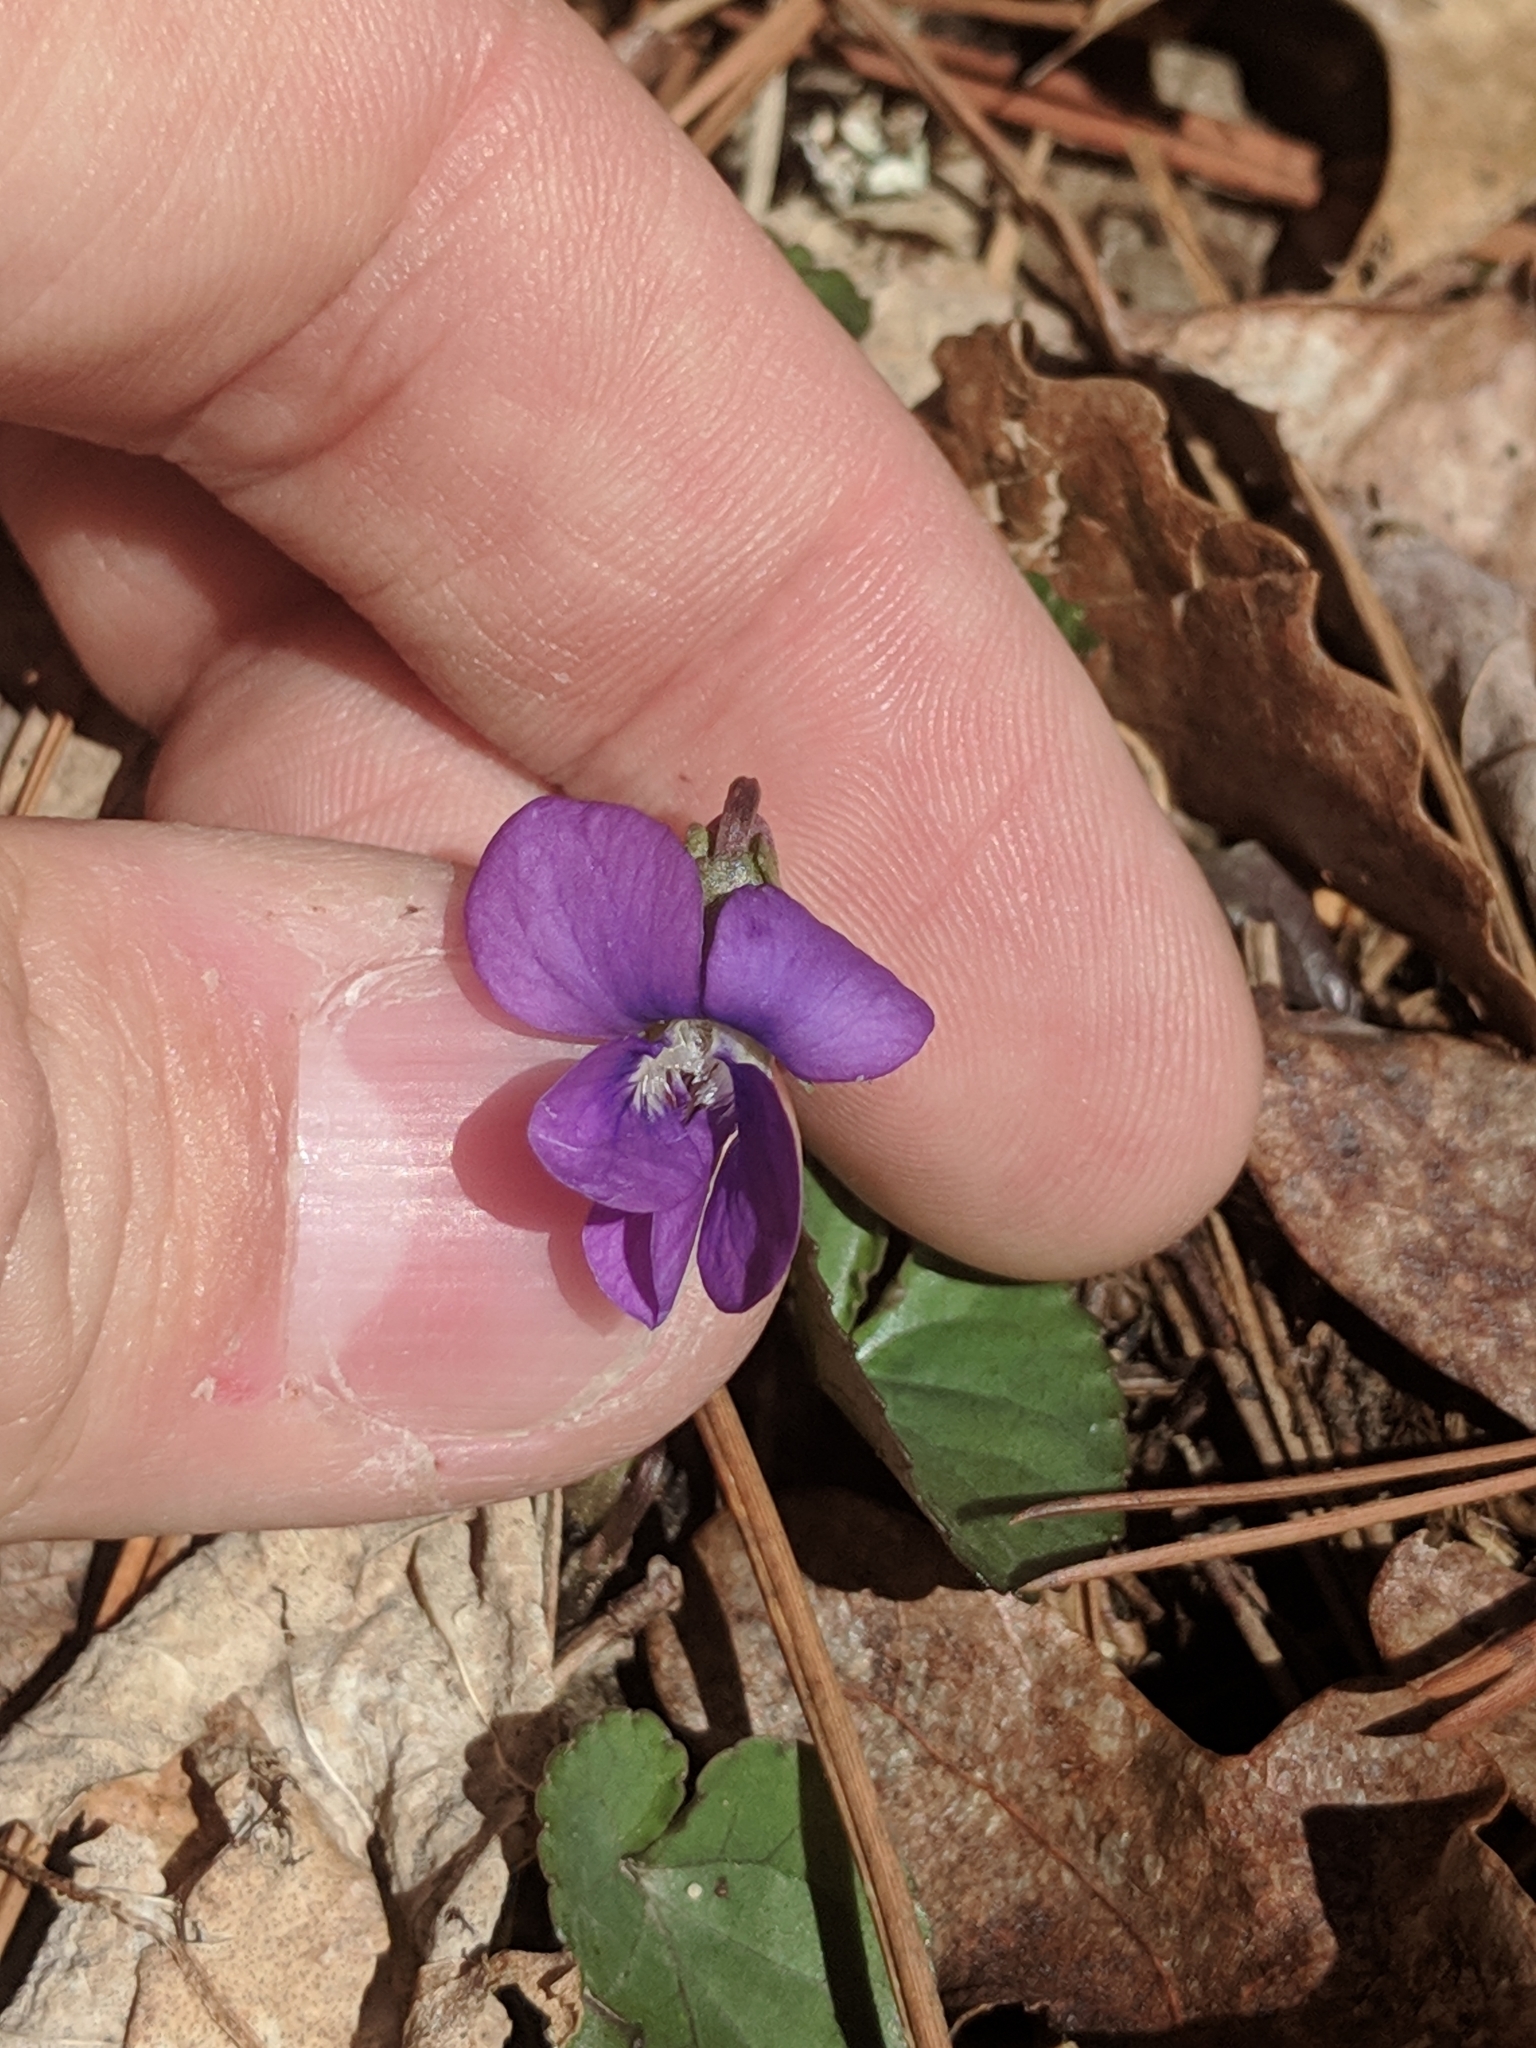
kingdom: Plantae
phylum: Tracheophyta
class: Magnoliopsida
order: Malpighiales
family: Violaceae
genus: Viola
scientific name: Viola hirsutula
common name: Southern wood violet
